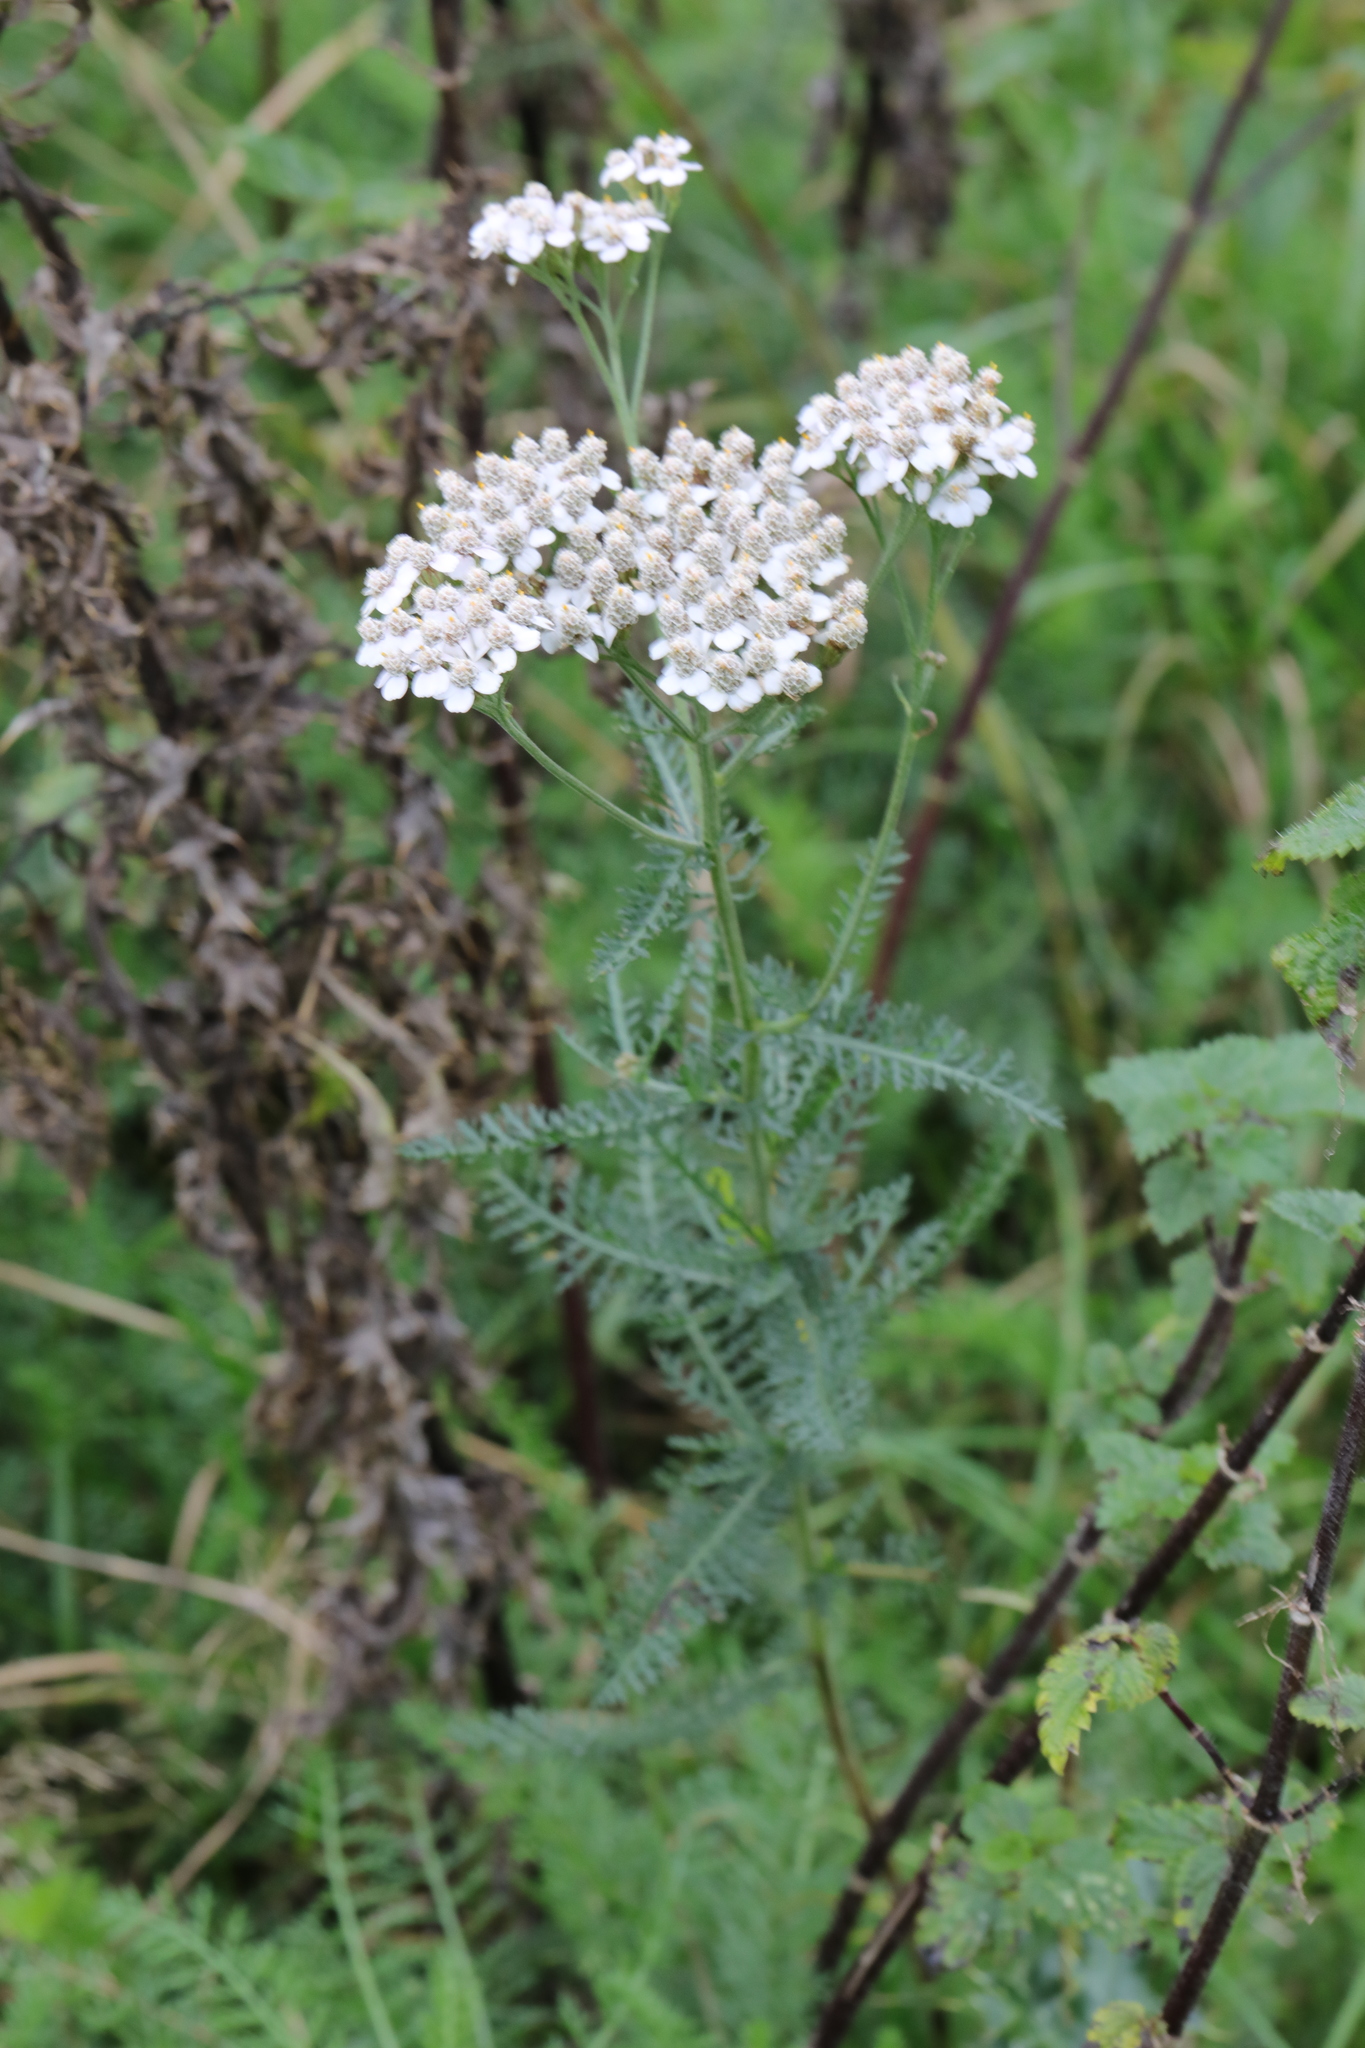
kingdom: Plantae
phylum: Tracheophyta
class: Magnoliopsida
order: Asterales
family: Asteraceae
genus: Achillea
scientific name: Achillea millefolium
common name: Yarrow
